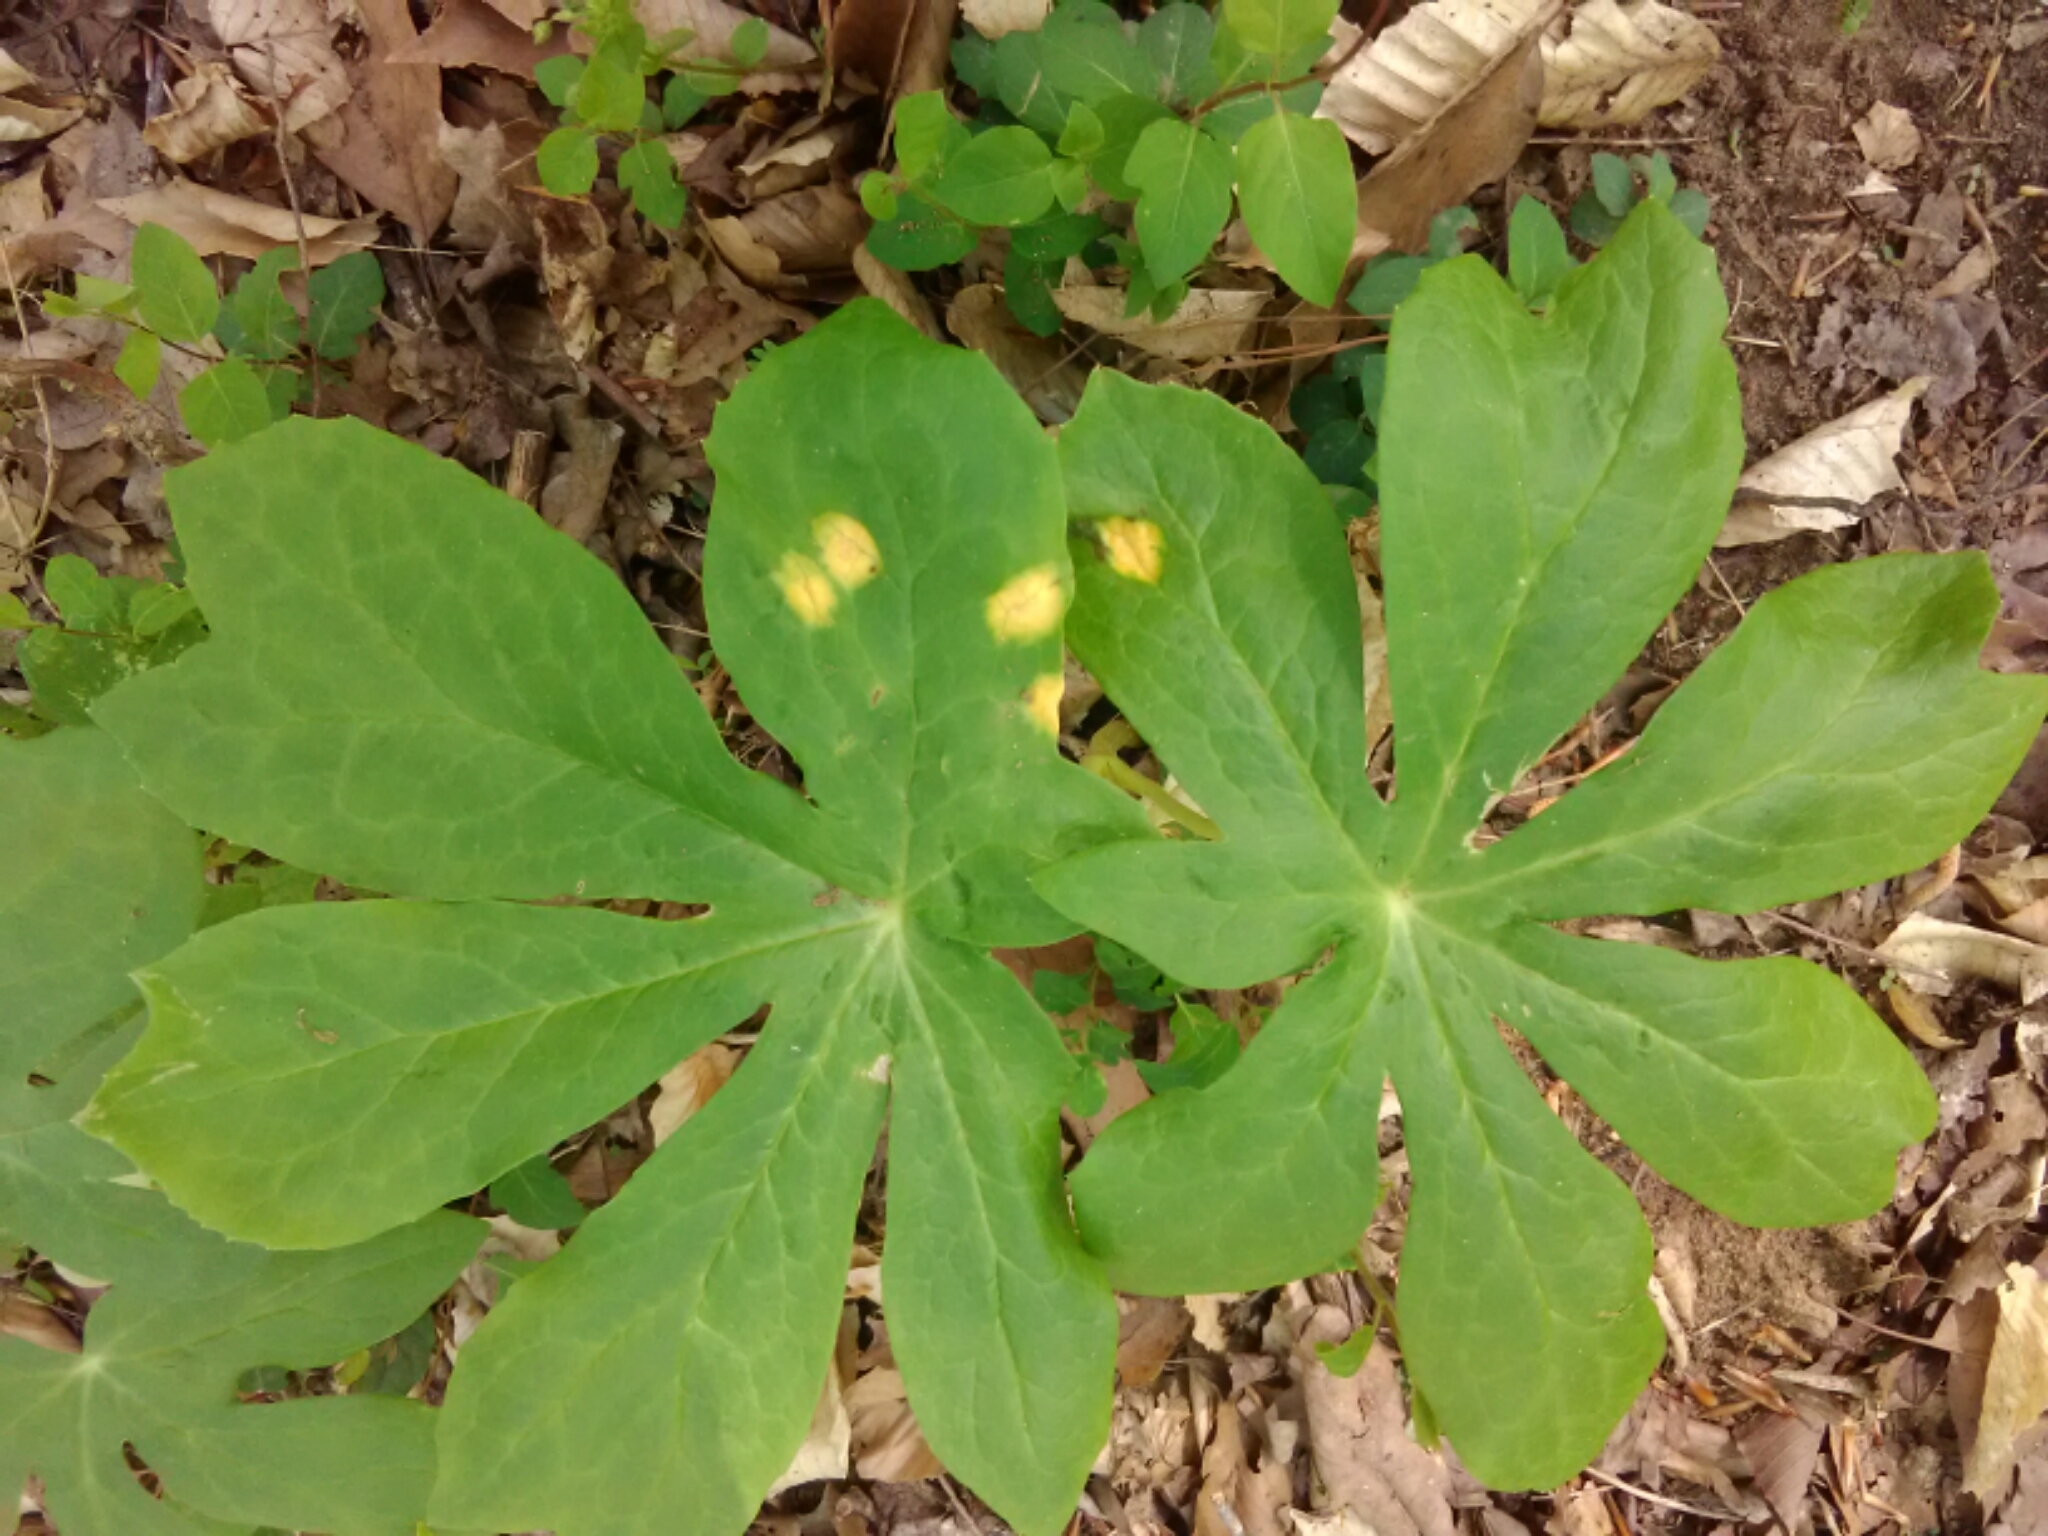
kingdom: Fungi
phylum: Basidiomycota
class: Pucciniomycetes
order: Pucciniales
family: Pucciniaceae
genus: Puccinia
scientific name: Puccinia podophylli
